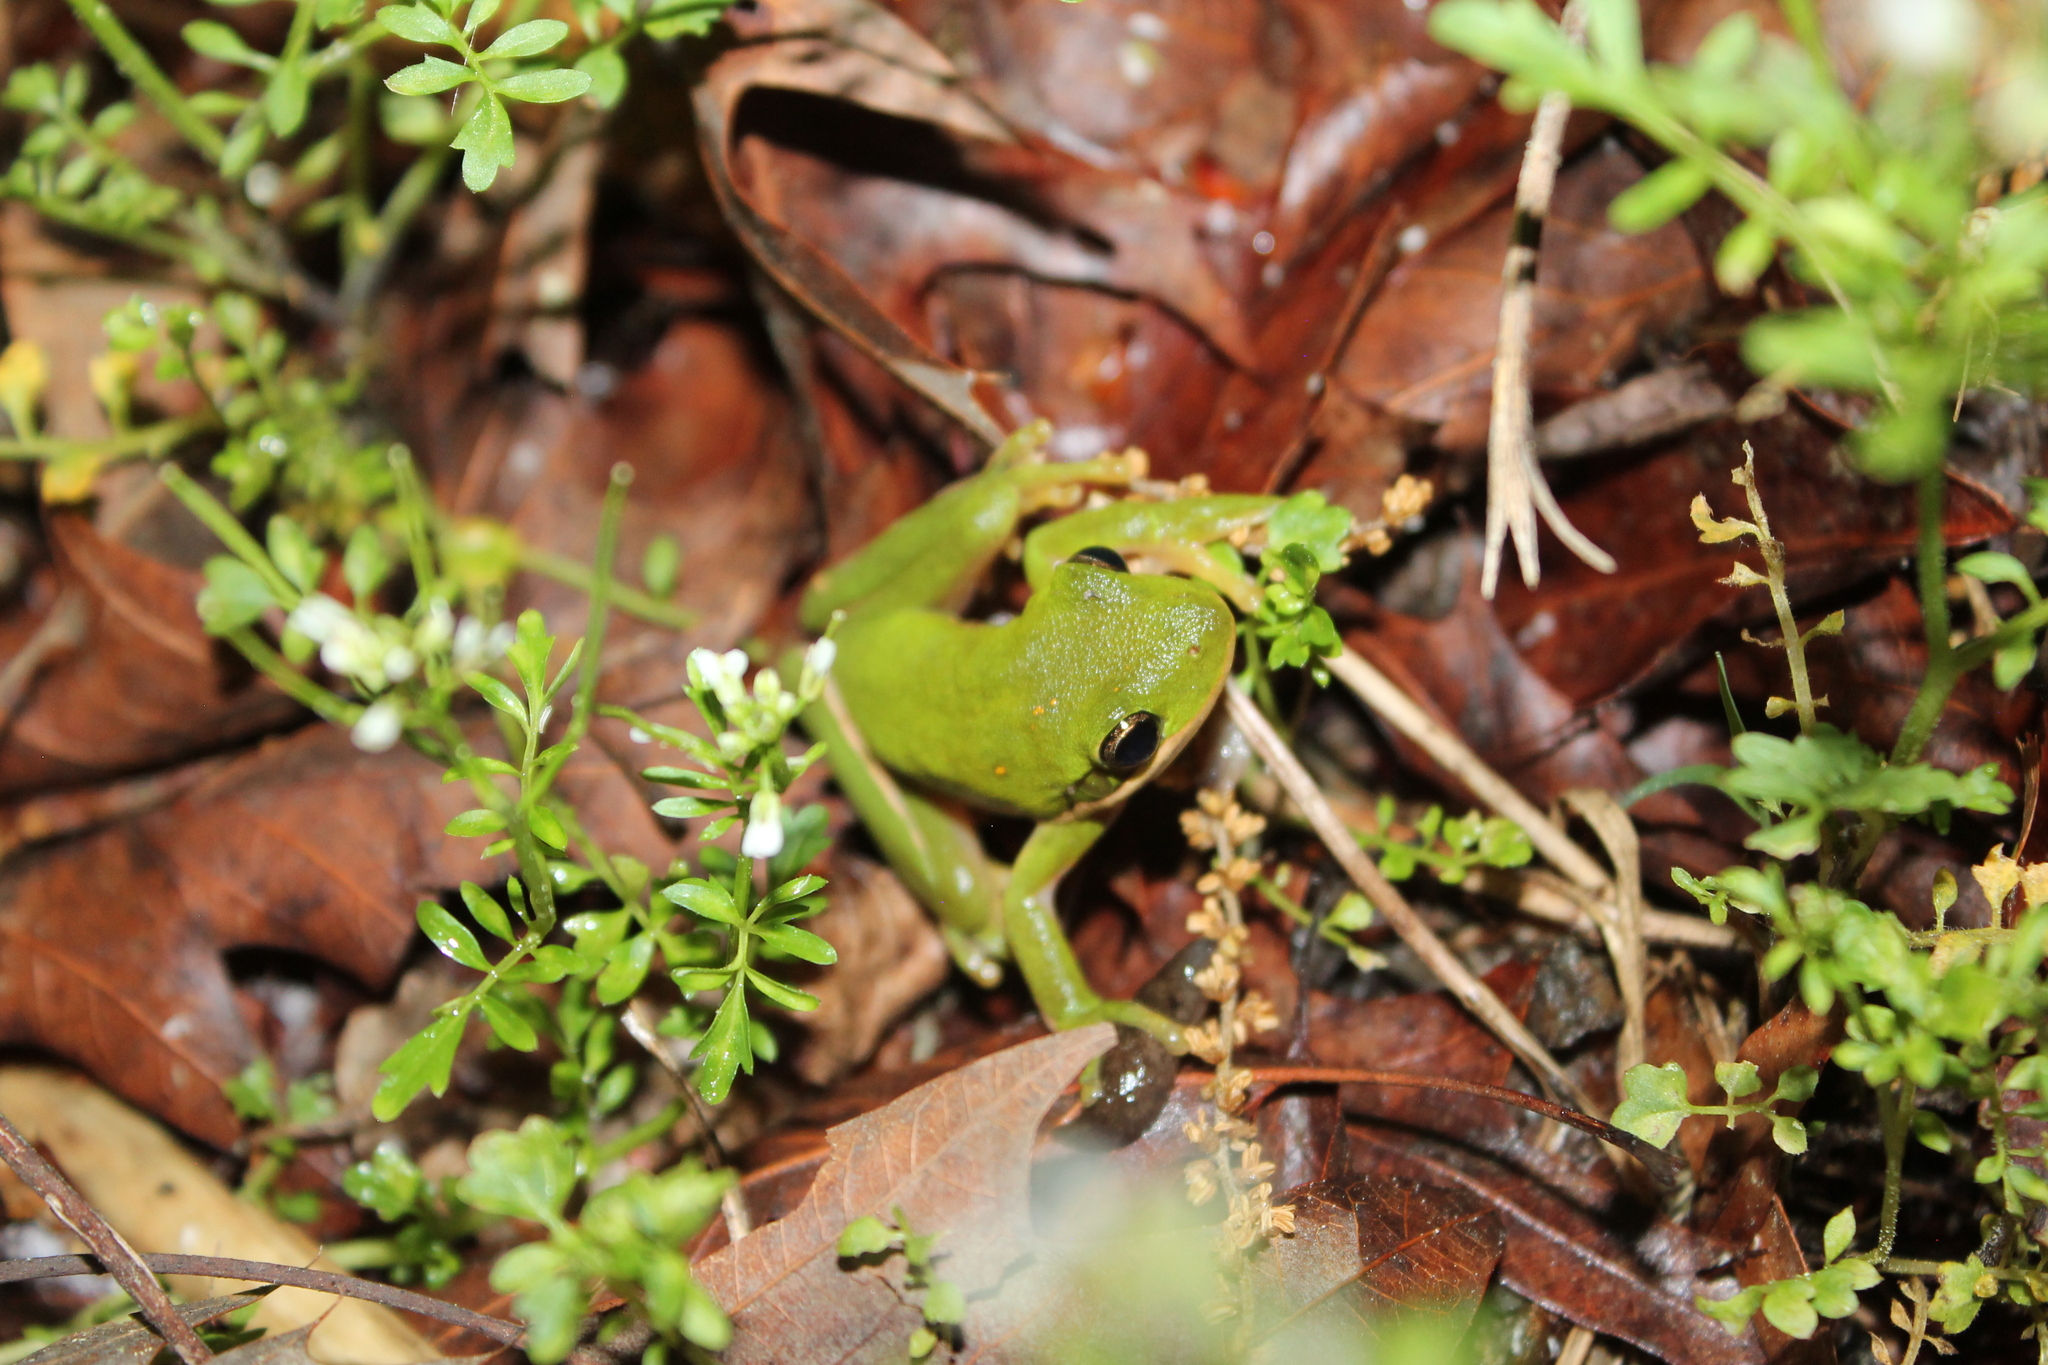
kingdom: Animalia
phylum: Chordata
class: Amphibia
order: Anura
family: Hylidae
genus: Dryophytes
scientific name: Dryophytes cinereus
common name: Green treefrog
